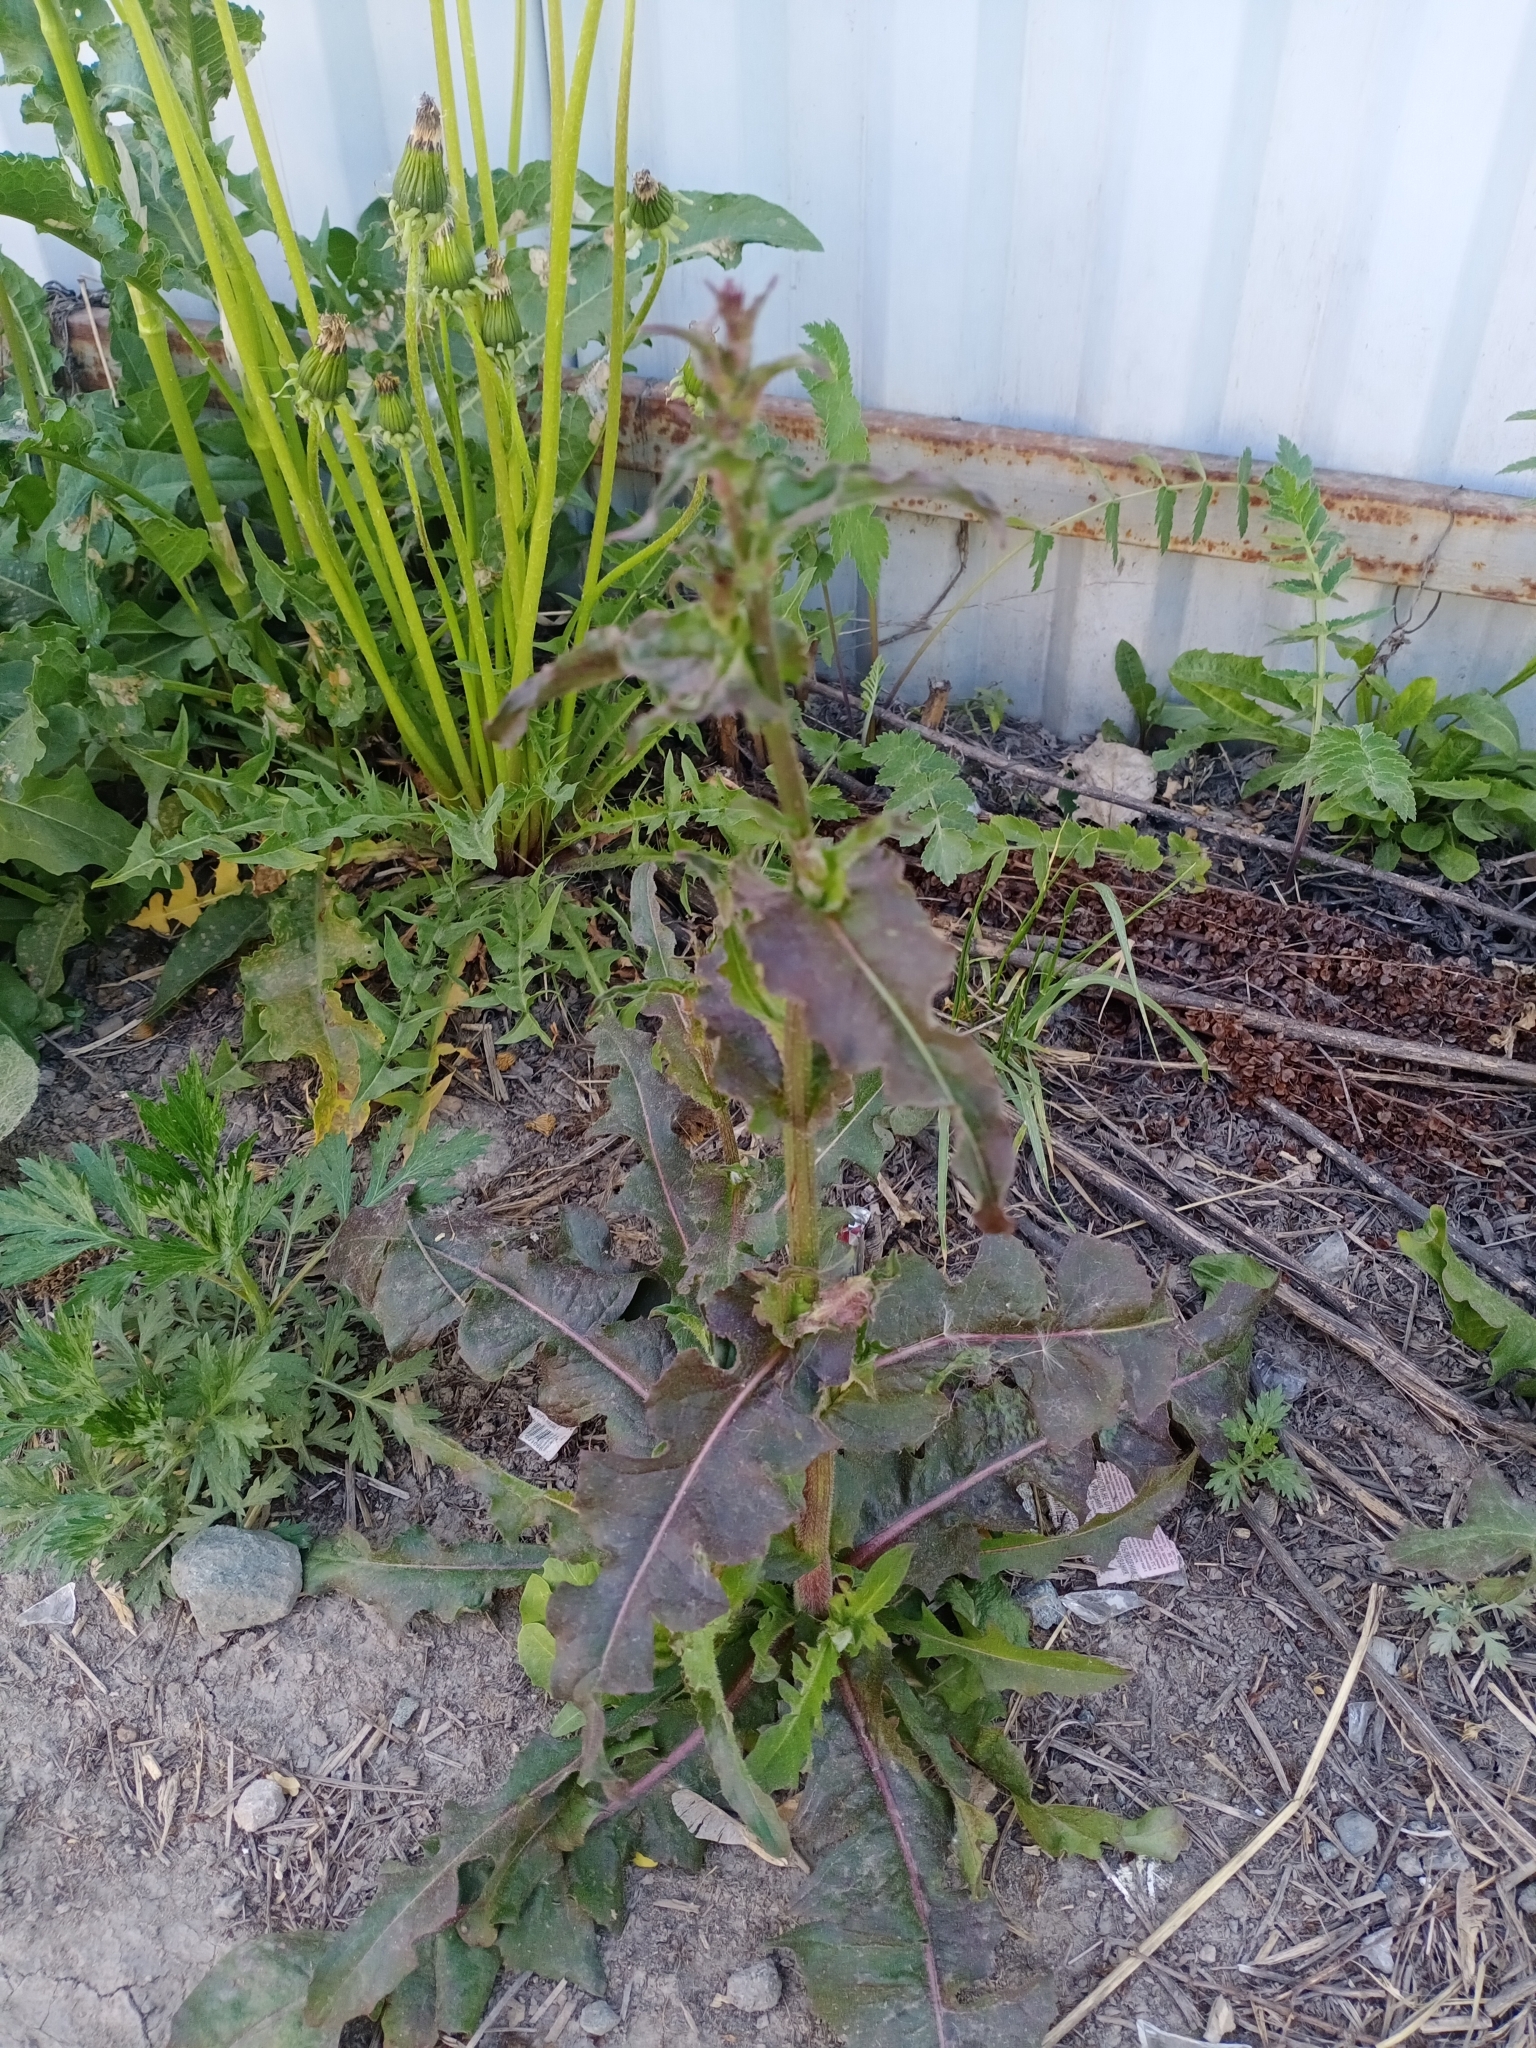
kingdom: Plantae
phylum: Tracheophyta
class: Magnoliopsida
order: Asterales
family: Asteraceae
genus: Cichorium
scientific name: Cichorium intybus
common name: Chicory
